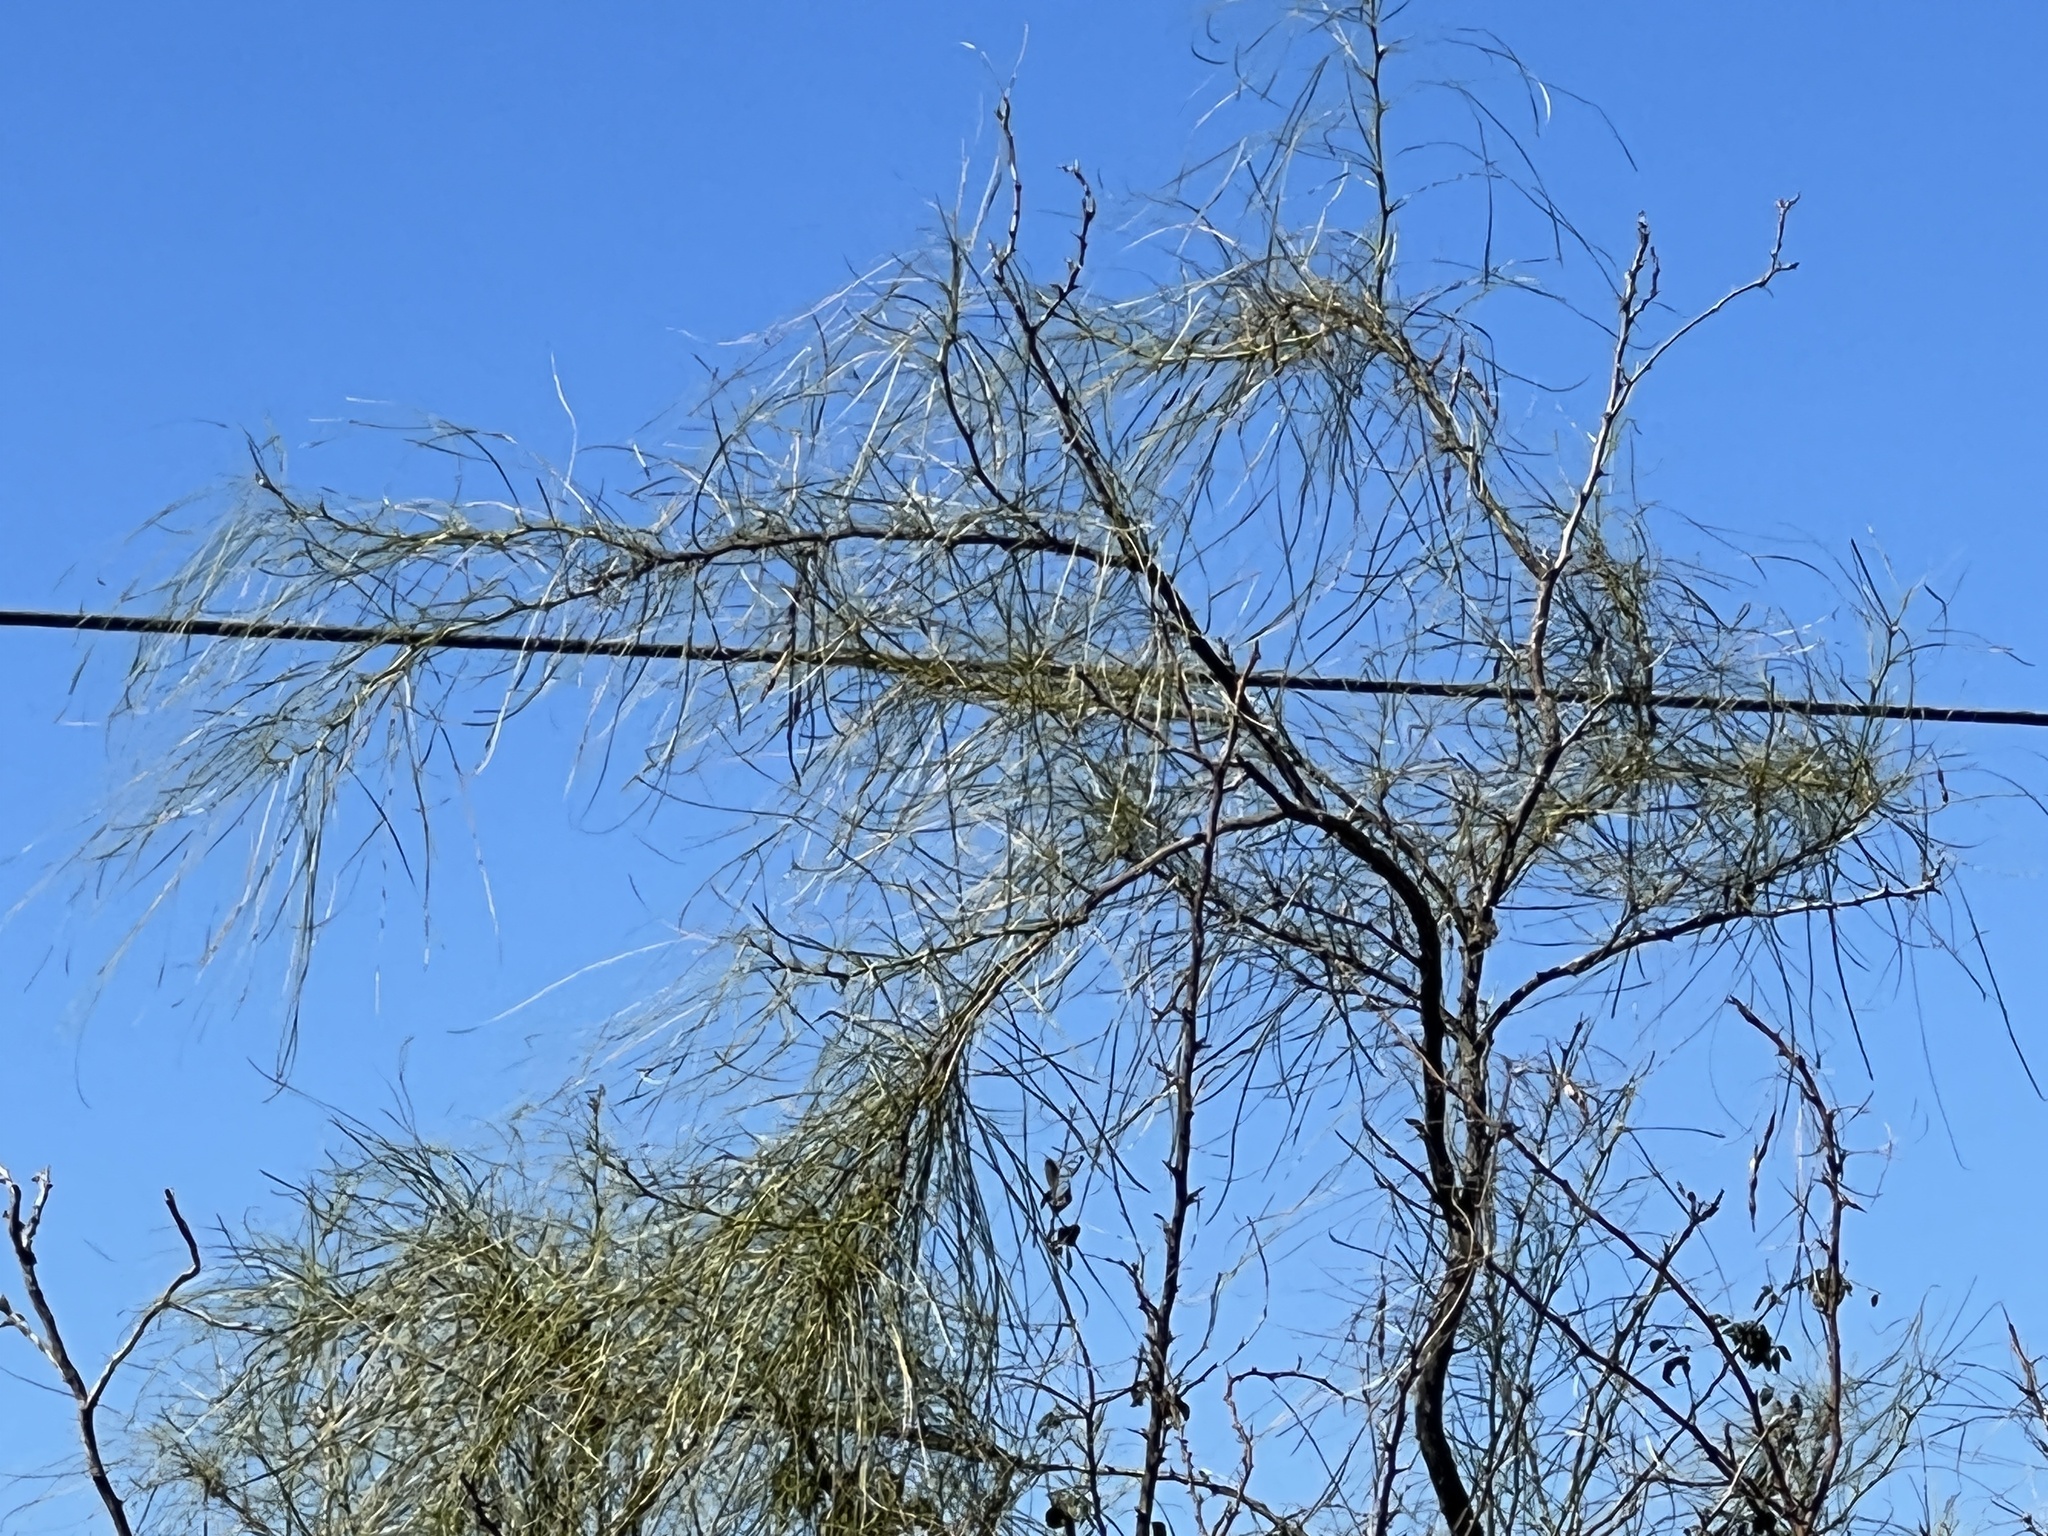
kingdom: Plantae
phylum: Tracheophyta
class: Magnoliopsida
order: Fabales
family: Fabaceae
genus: Parkinsonia
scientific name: Parkinsonia aculeata
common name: Jerusalem thorn
